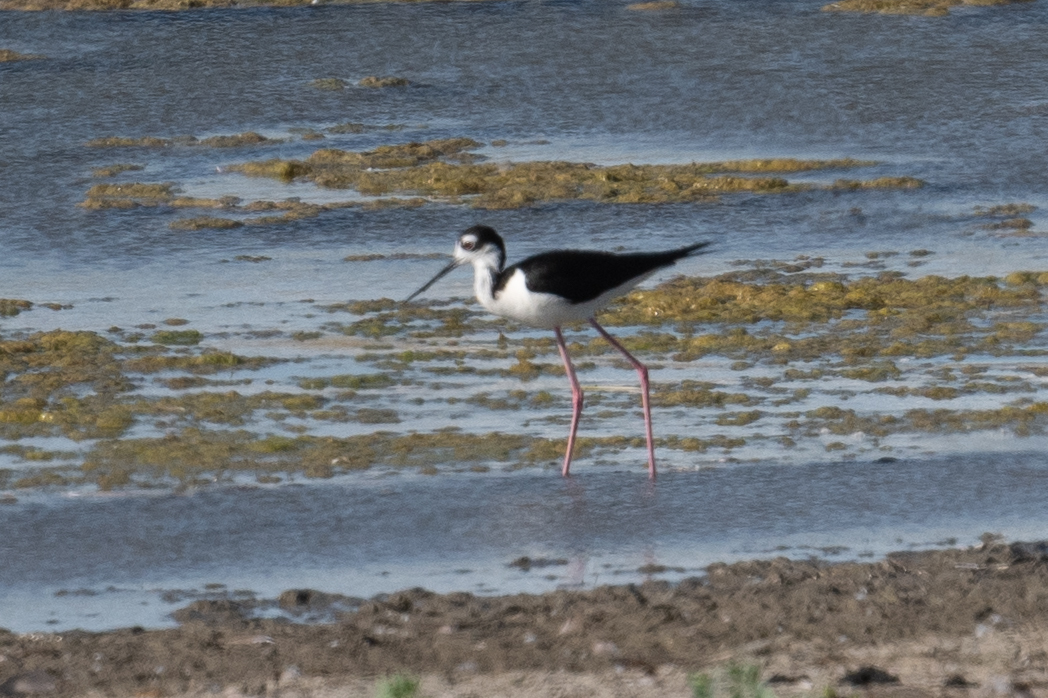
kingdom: Animalia
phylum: Chordata
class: Aves
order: Charadriiformes
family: Recurvirostridae
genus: Himantopus
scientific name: Himantopus mexicanus
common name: Black-necked stilt
